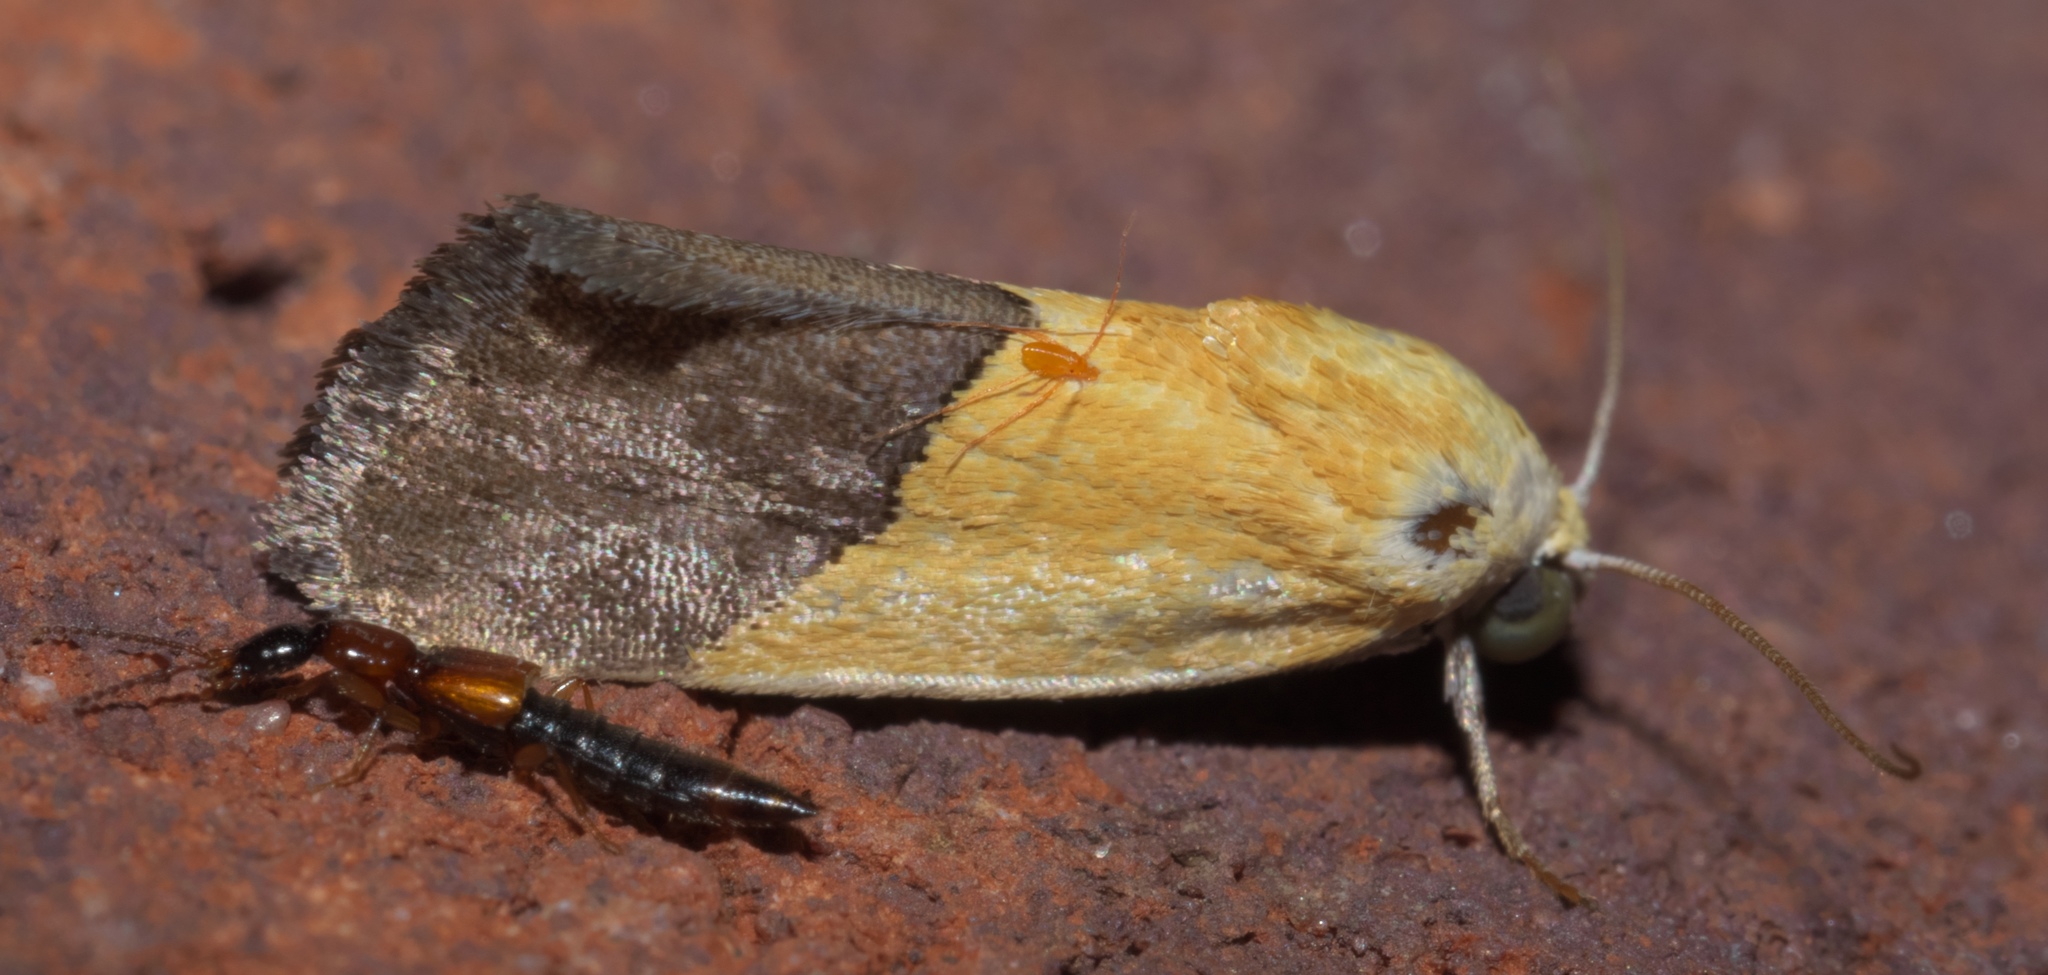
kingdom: Animalia
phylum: Arthropoda
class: Insecta
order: Lepidoptera
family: Noctuidae
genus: Acontia
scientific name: Acontia semiflava
